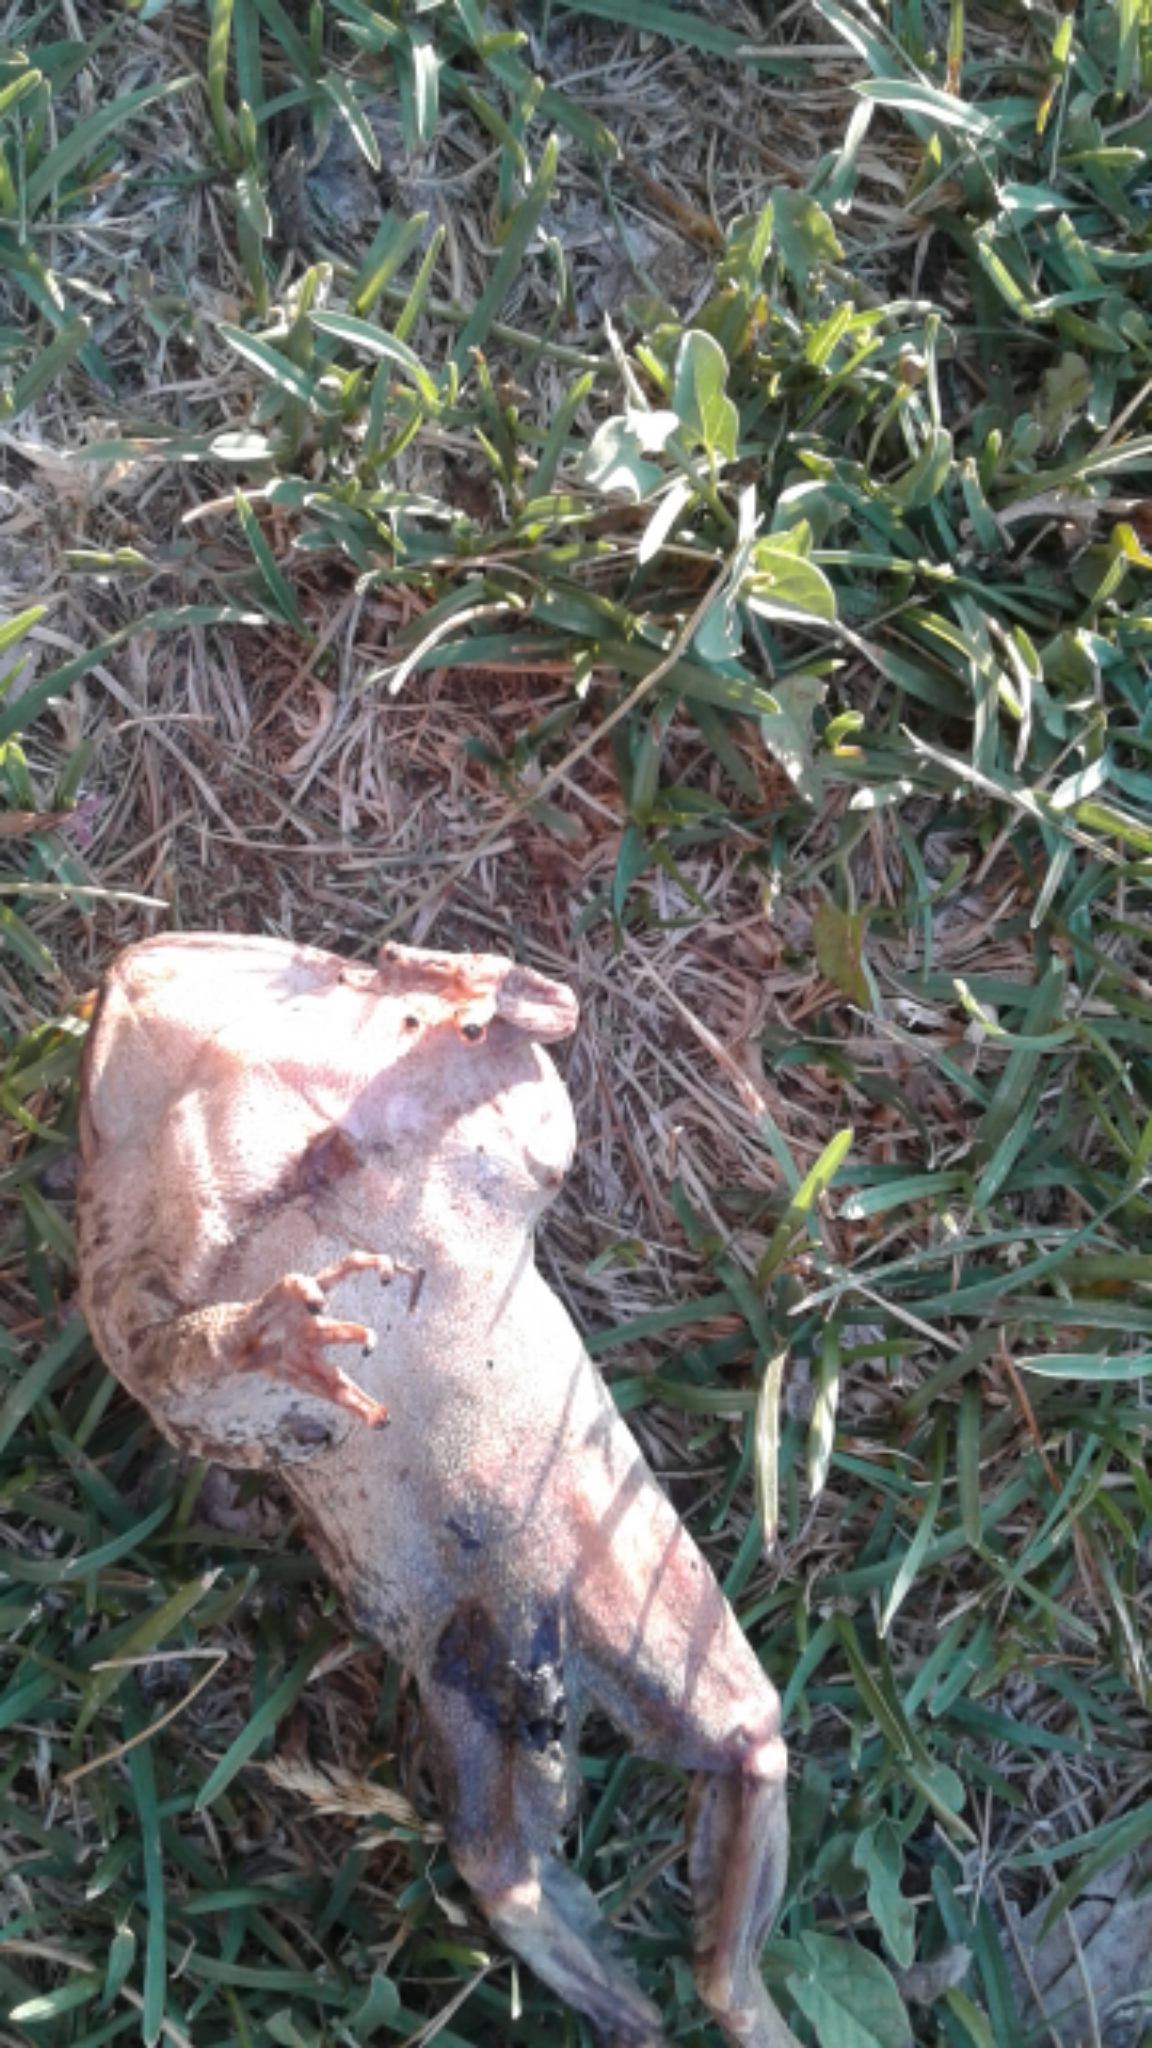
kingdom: Animalia
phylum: Chordata
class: Amphibia
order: Anura
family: Bufonidae
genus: Anaxyrus
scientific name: Anaxyrus cognatus
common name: Great plains toad
